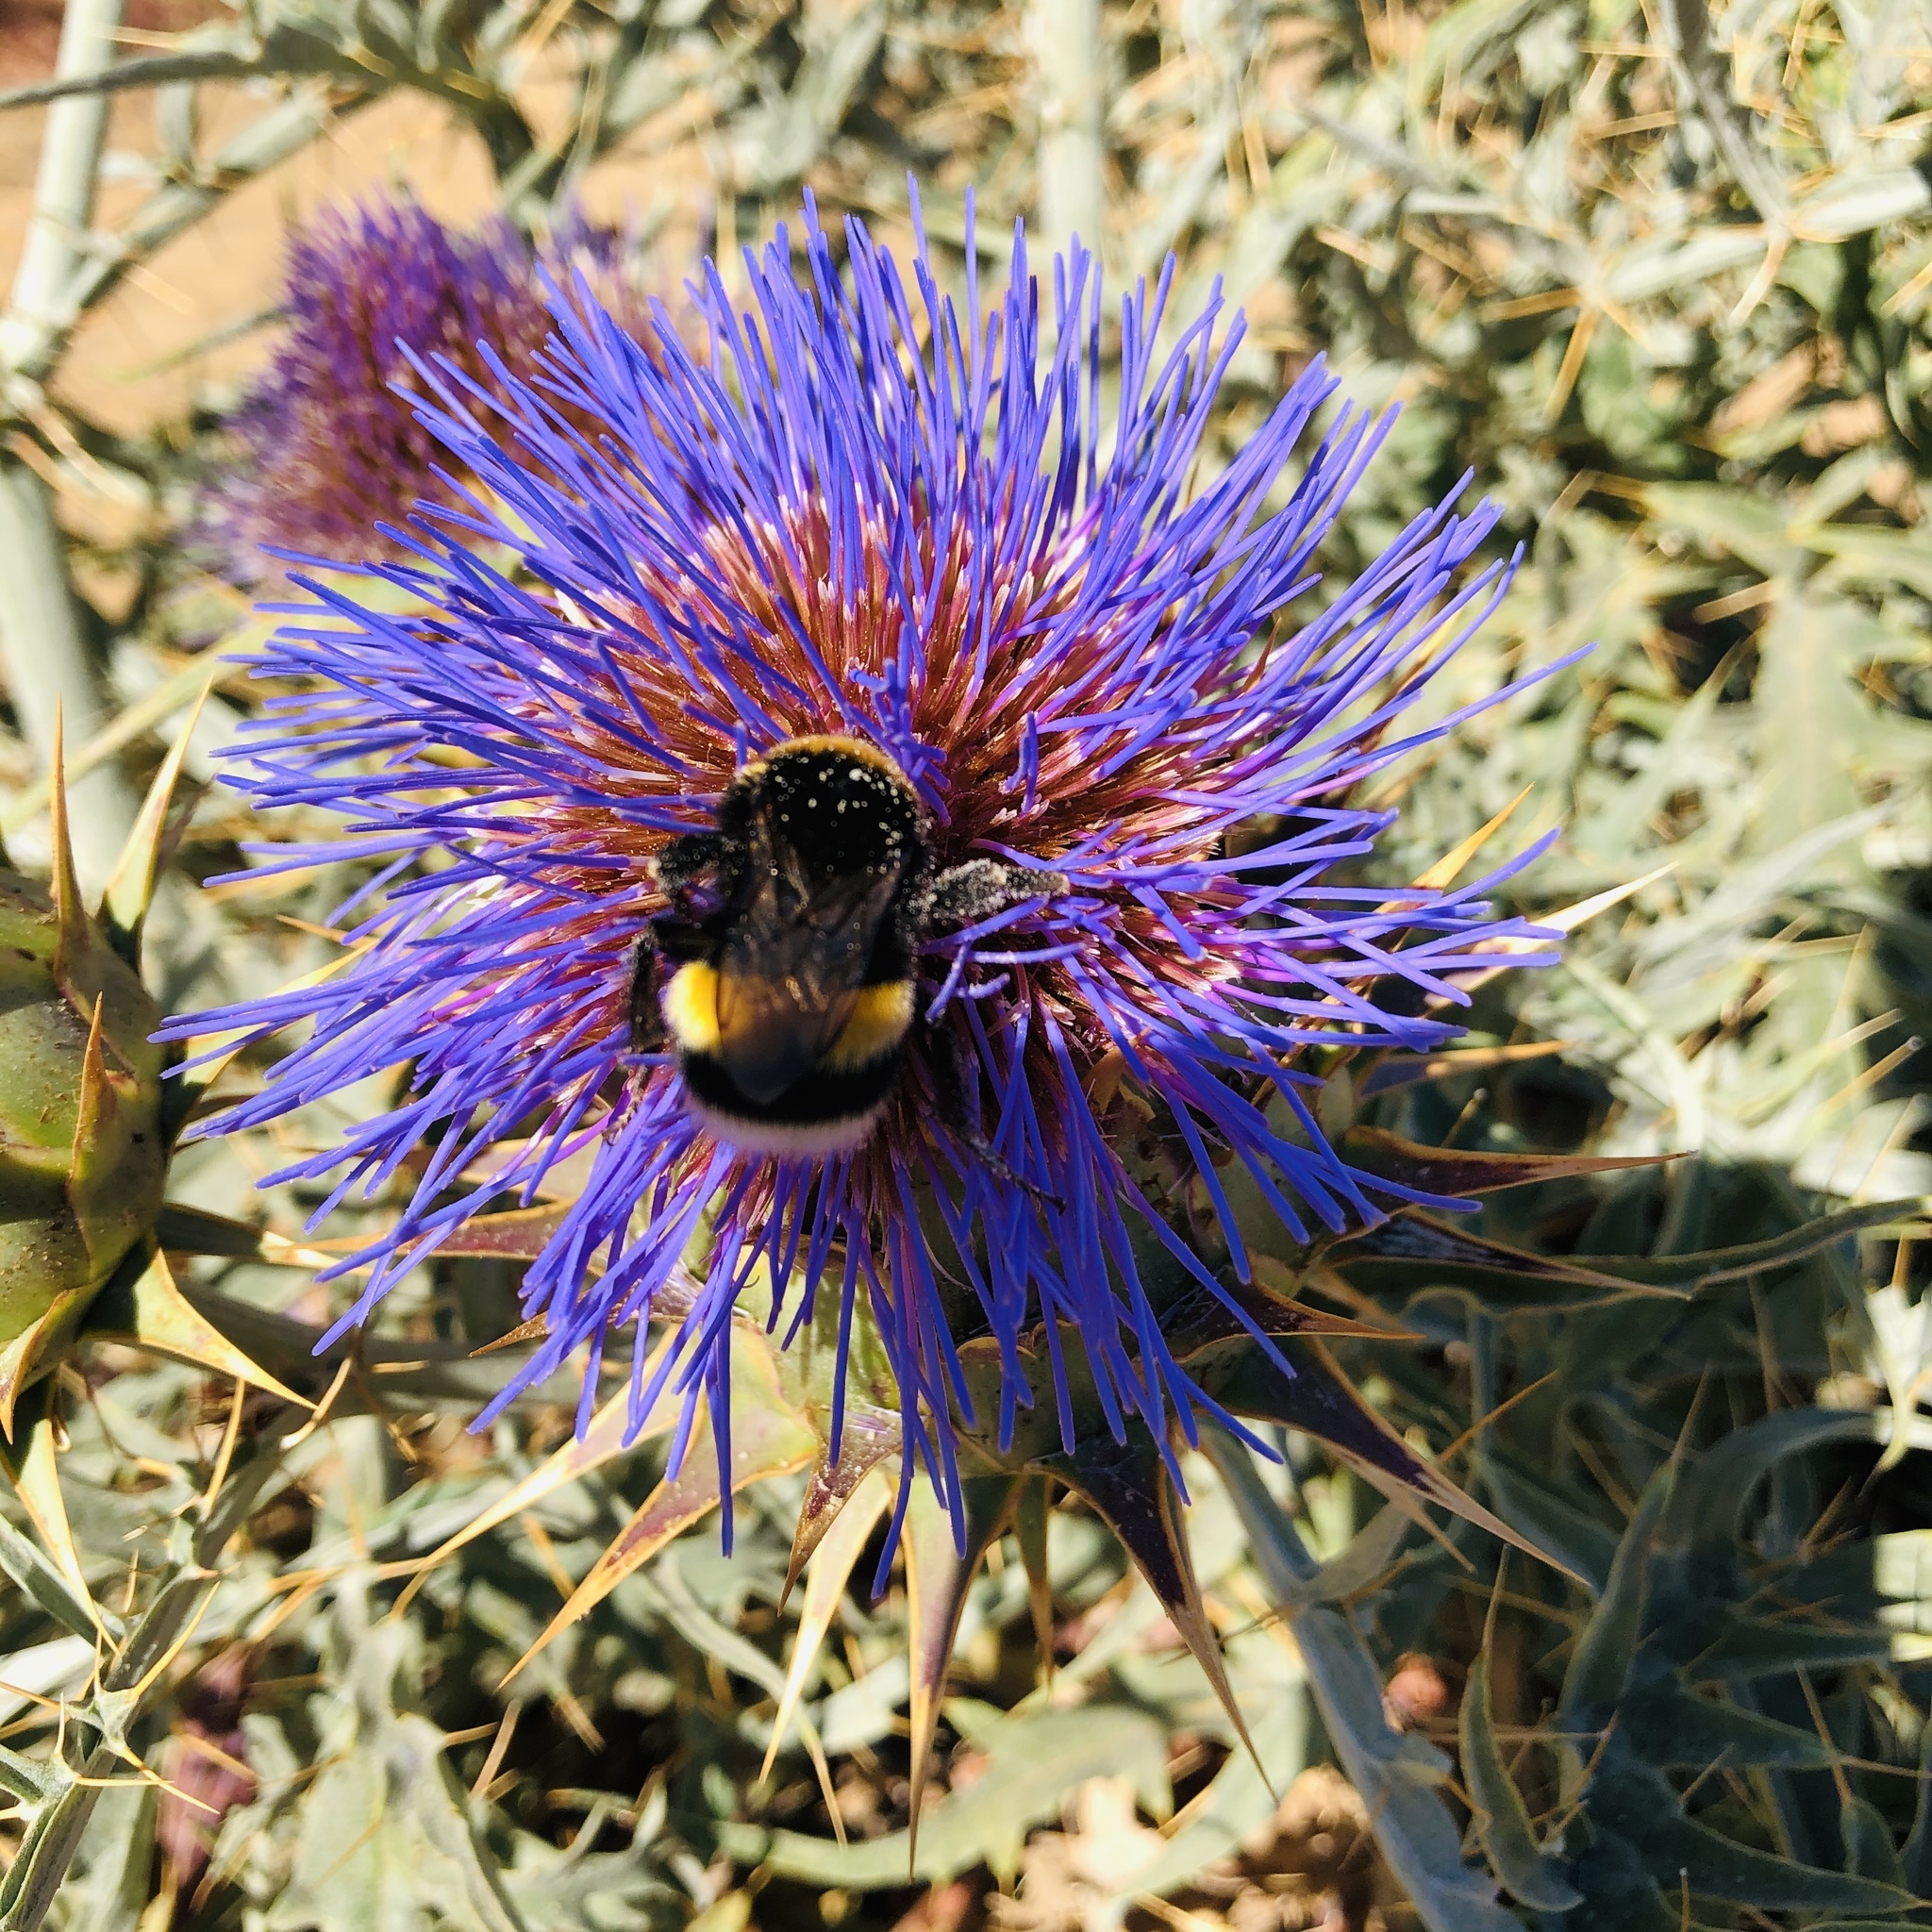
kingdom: Animalia
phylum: Arthropoda
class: Insecta
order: Hymenoptera
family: Apidae
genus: Bombus
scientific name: Bombus terrestris
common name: Buff-tailed bumblebee
